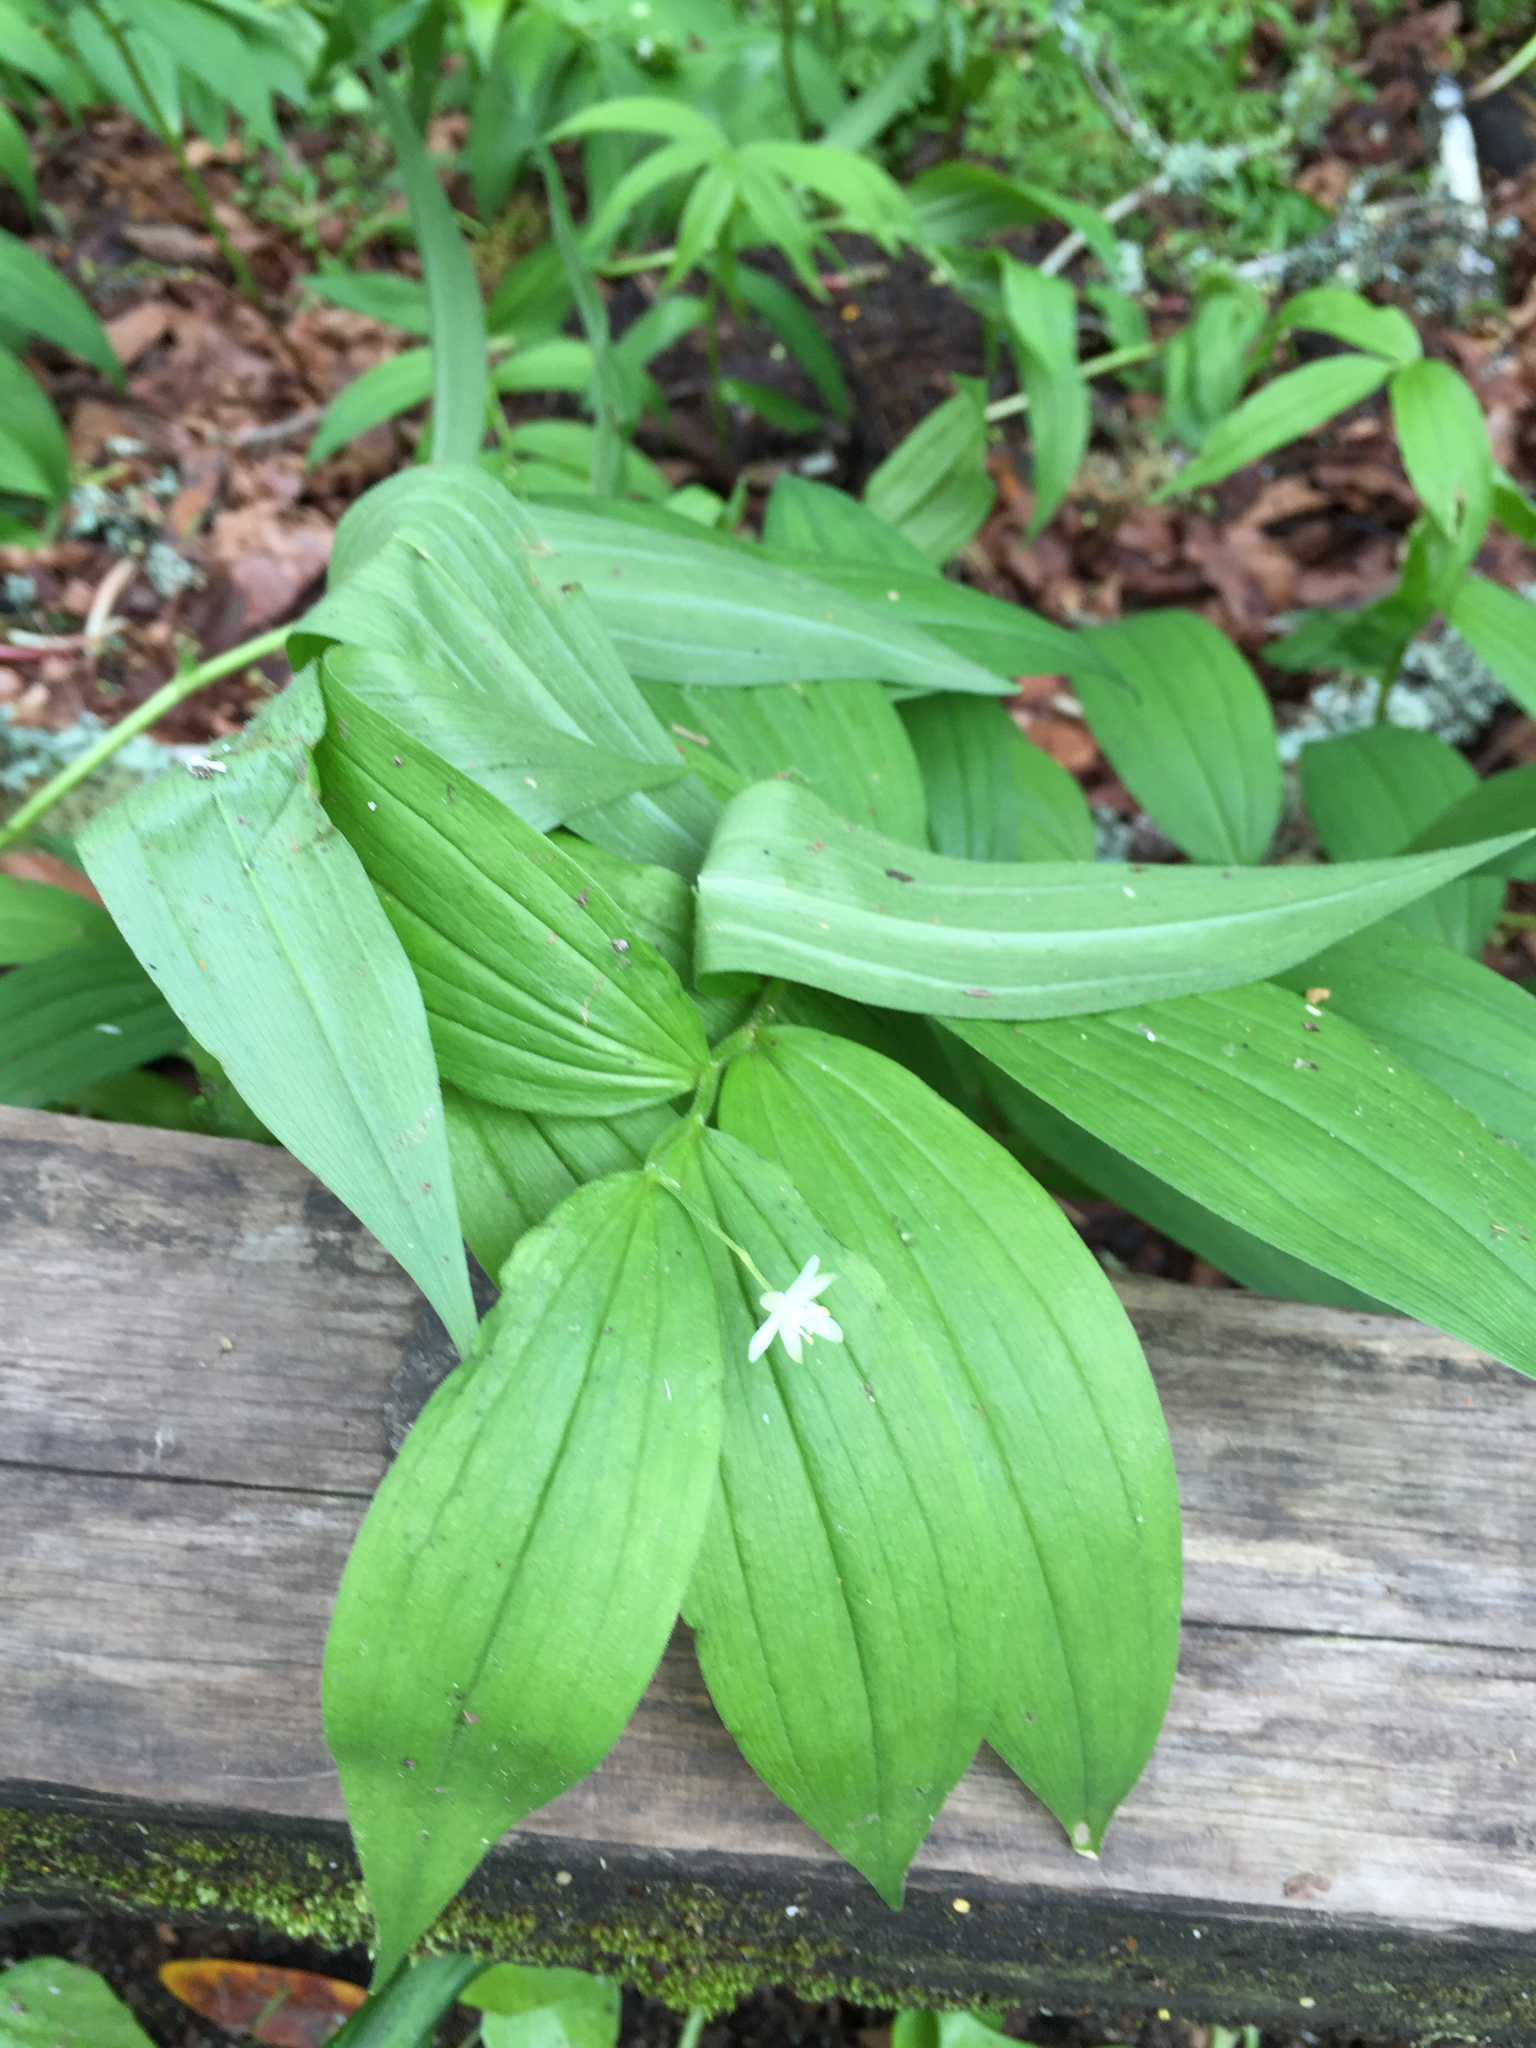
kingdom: Plantae
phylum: Tracheophyta
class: Liliopsida
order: Asparagales
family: Asparagaceae
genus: Maianthemum
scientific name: Maianthemum stellatum
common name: Little false solomon's seal
